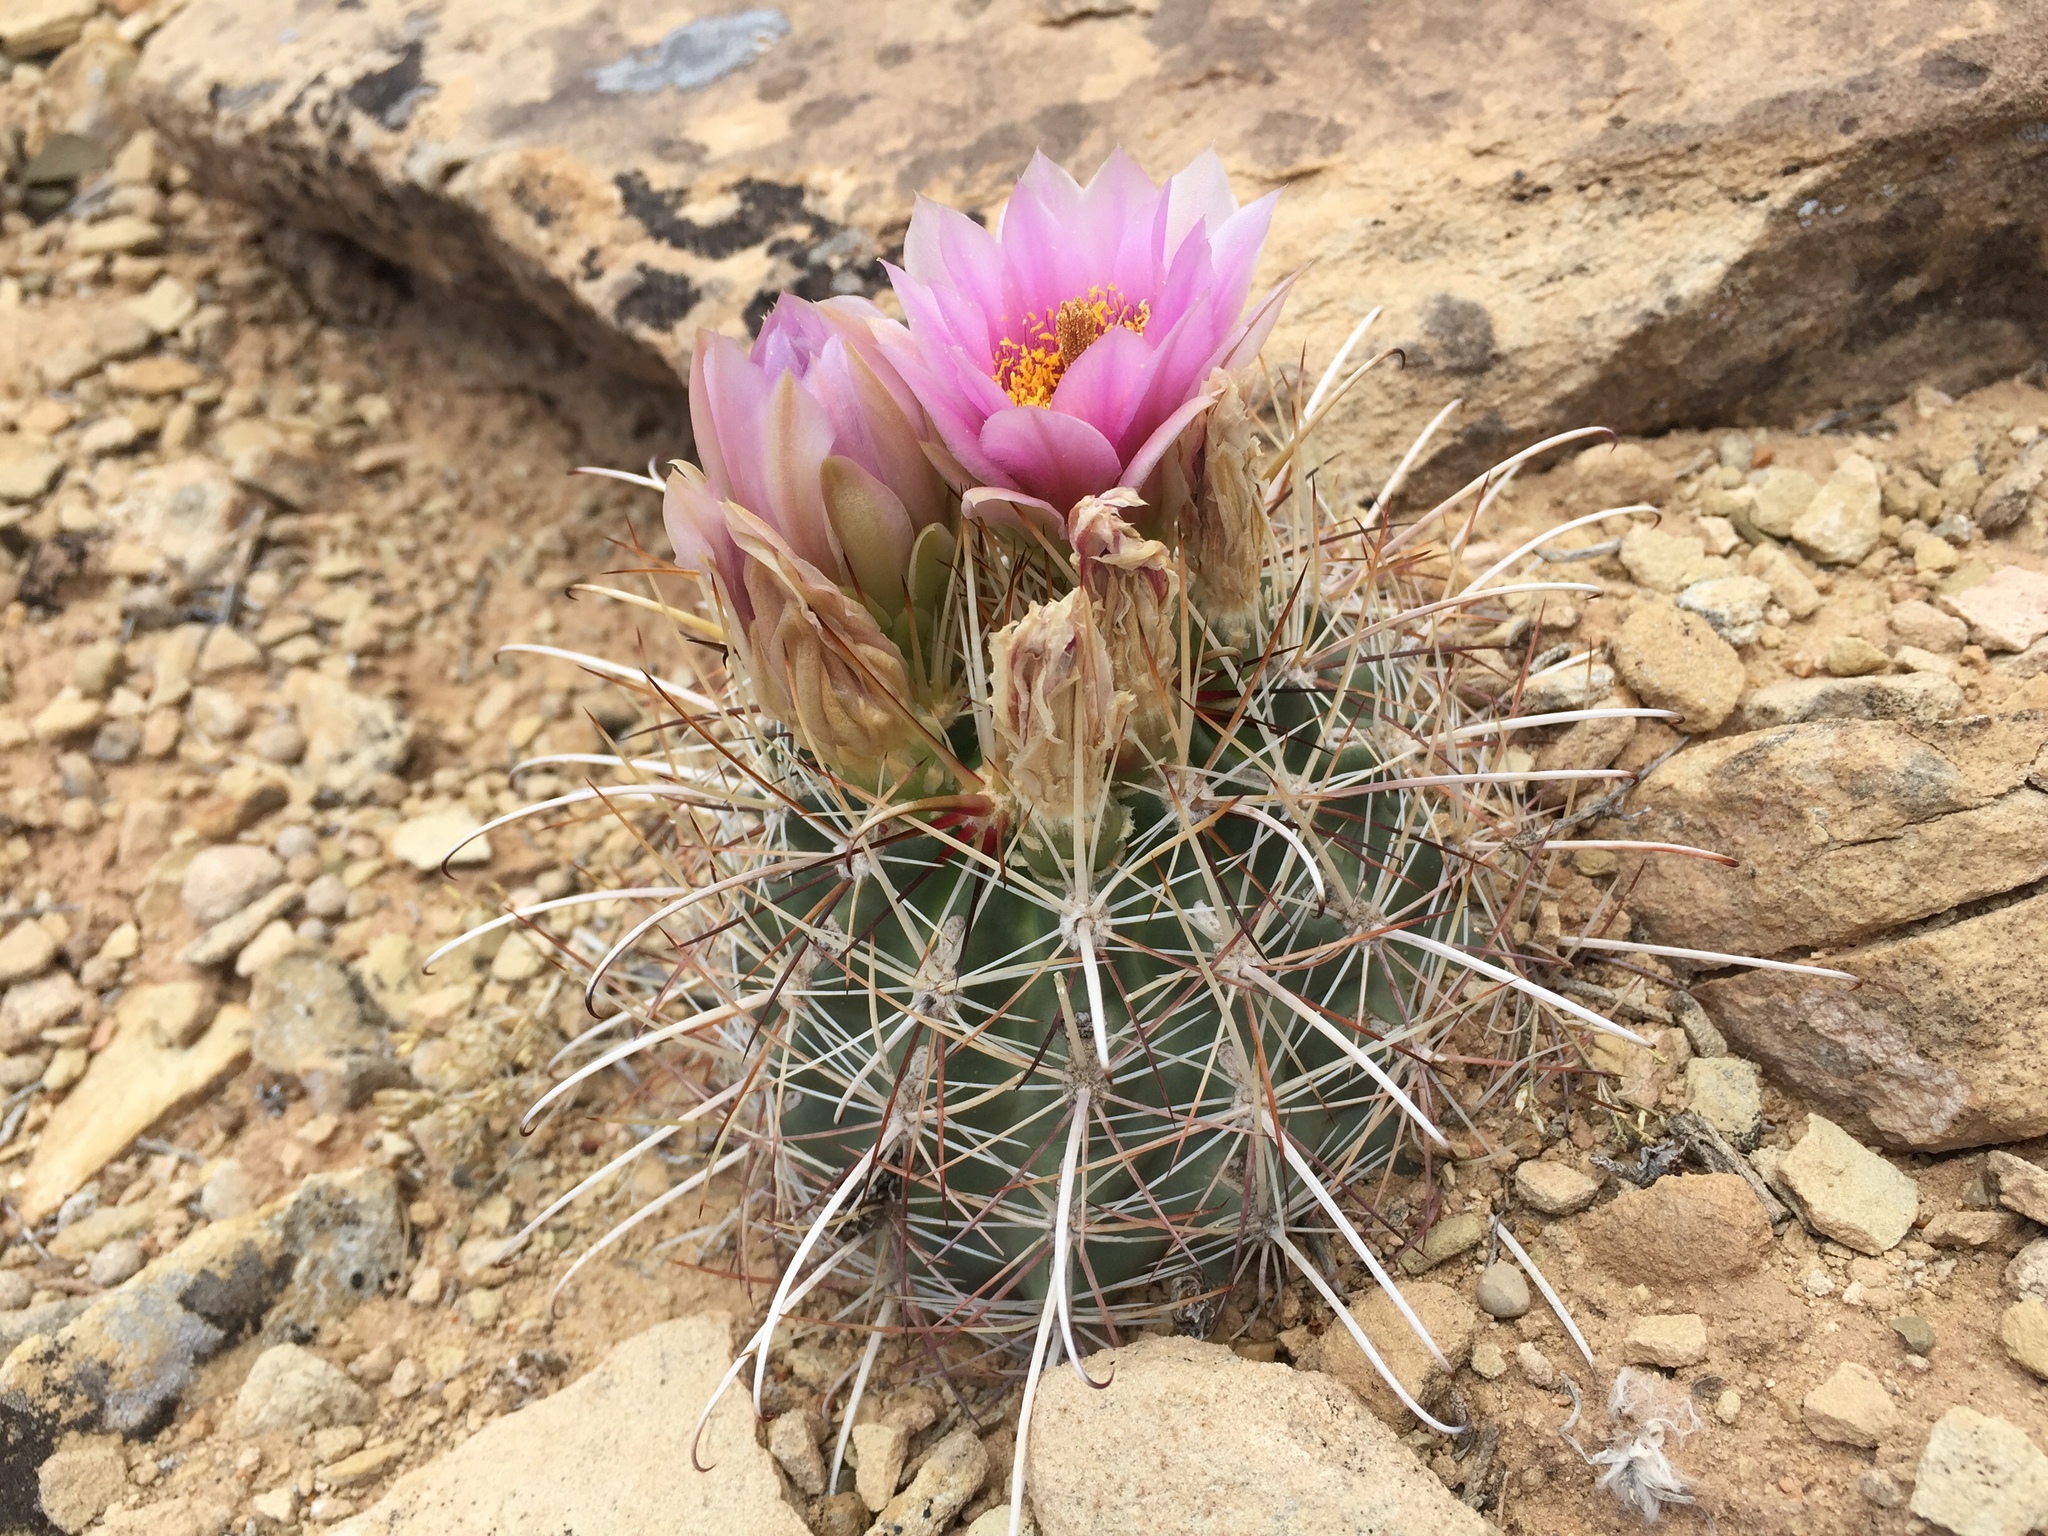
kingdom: Plantae
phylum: Tracheophyta
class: Magnoliopsida
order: Caryophyllales
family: Cactaceae
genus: Sclerocactus
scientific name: Sclerocactus parviflorus
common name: Small-flower fishhook cactus
